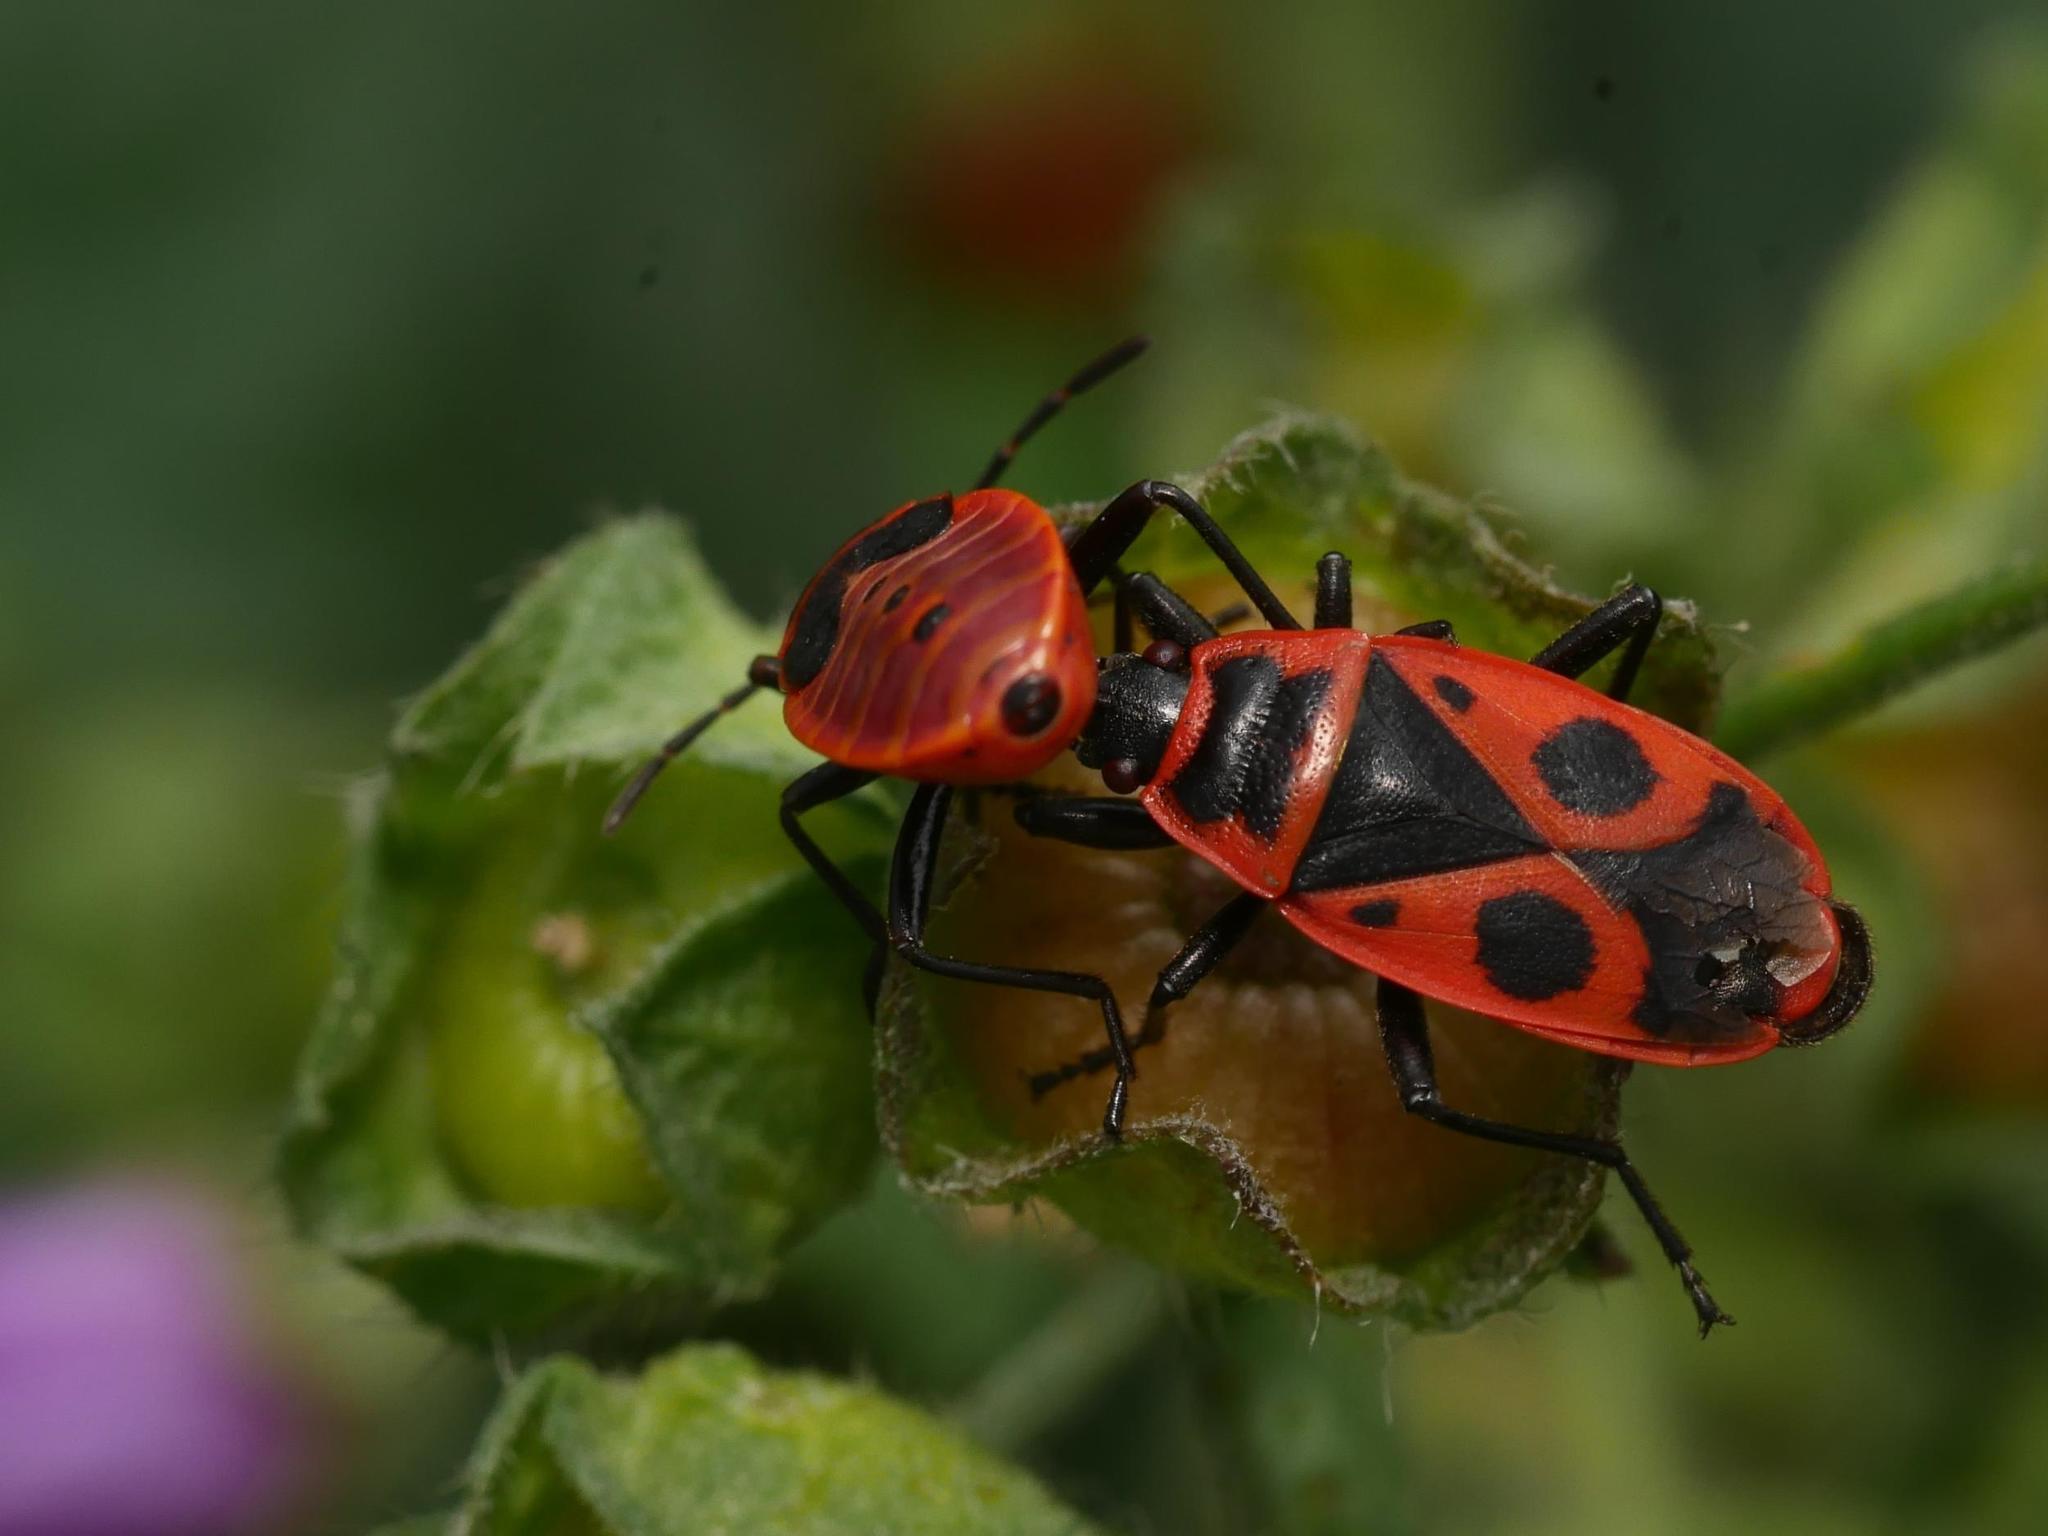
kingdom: Animalia
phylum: Arthropoda
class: Insecta
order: Hemiptera
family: Pyrrhocoridae
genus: Pyrrhocoris
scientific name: Pyrrhocoris apterus
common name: Firebug
